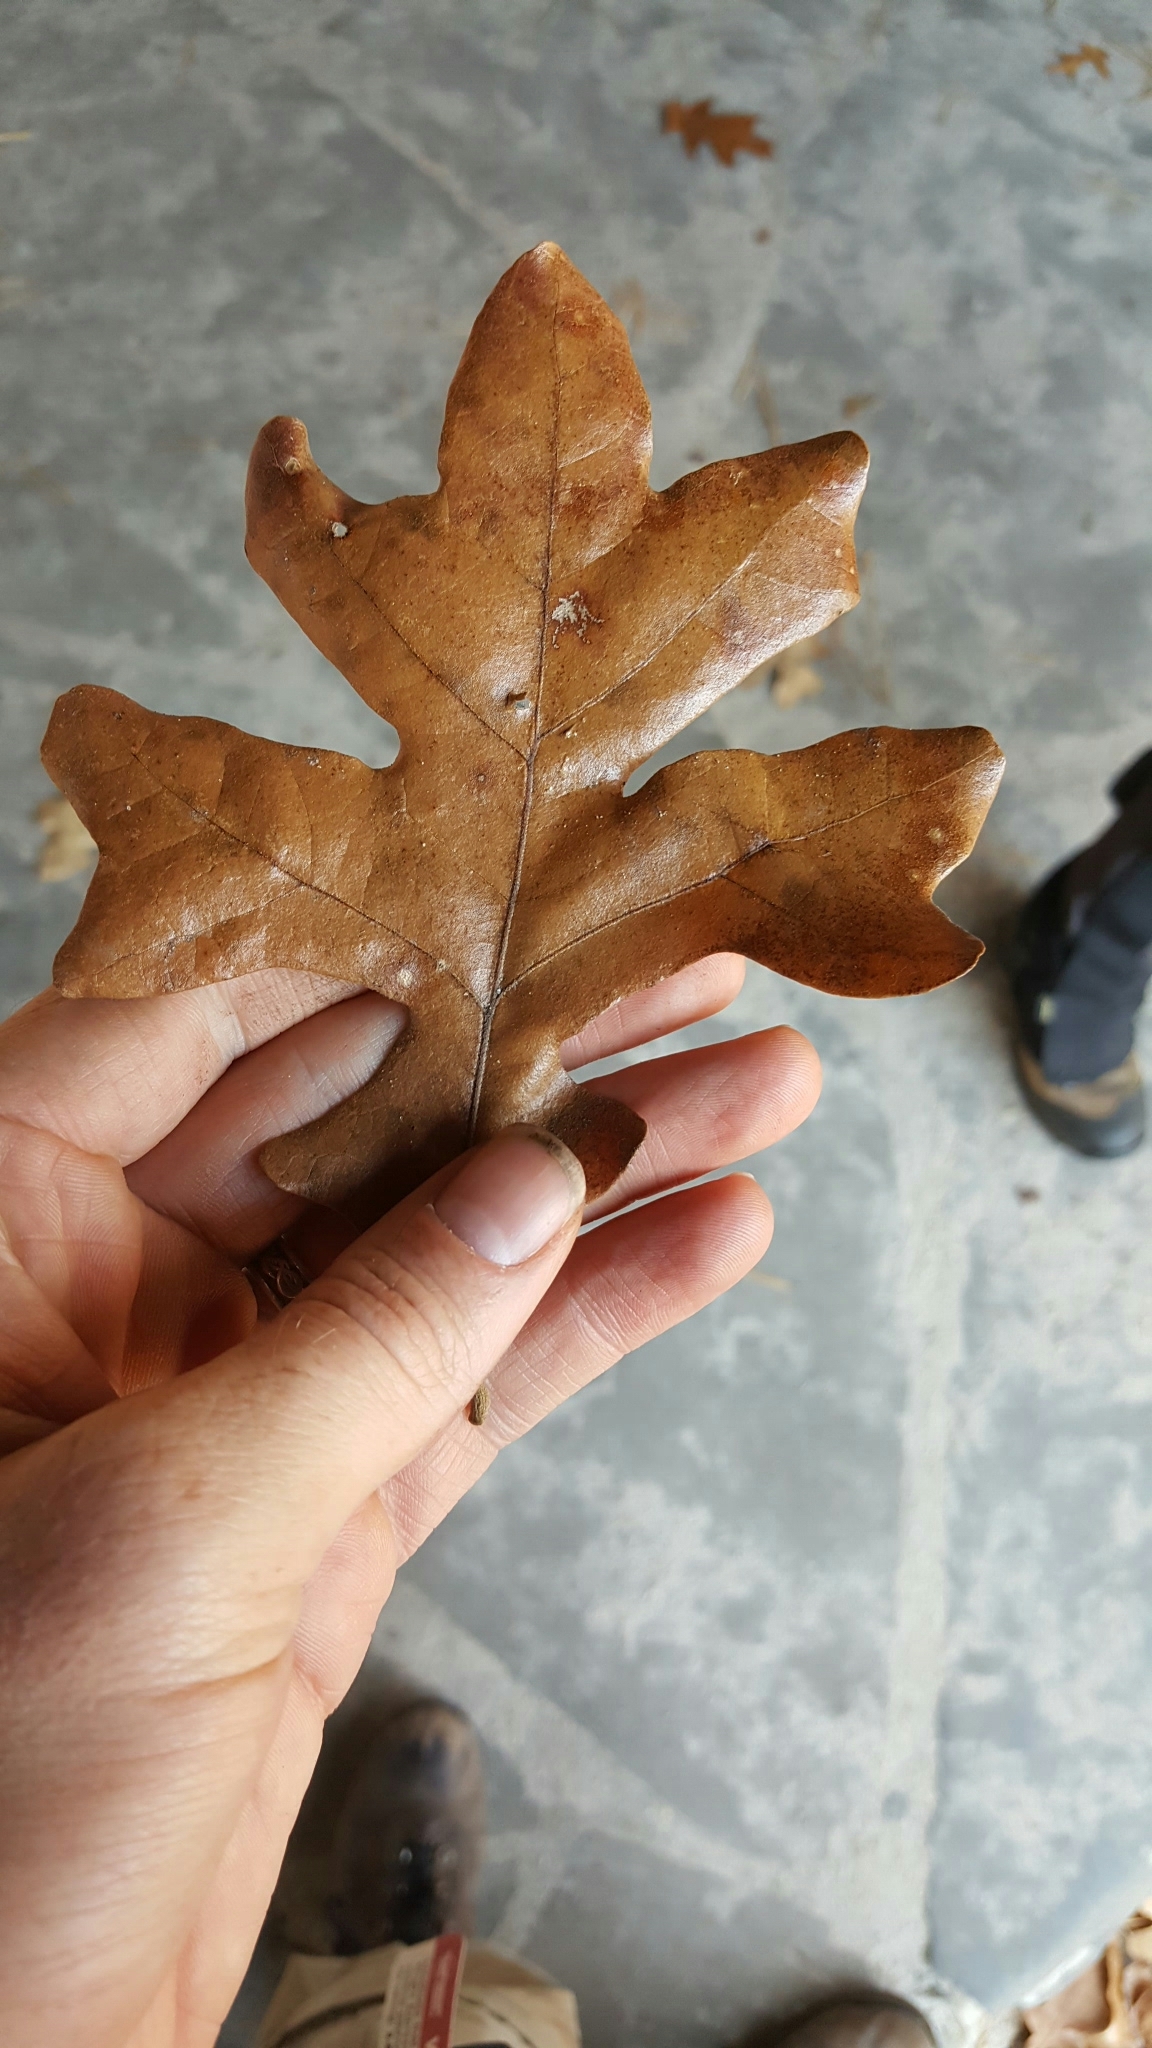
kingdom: Plantae
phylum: Tracheophyta
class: Magnoliopsida
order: Fagales
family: Fagaceae
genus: Quercus
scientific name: Quercus stellata
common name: Post oak
